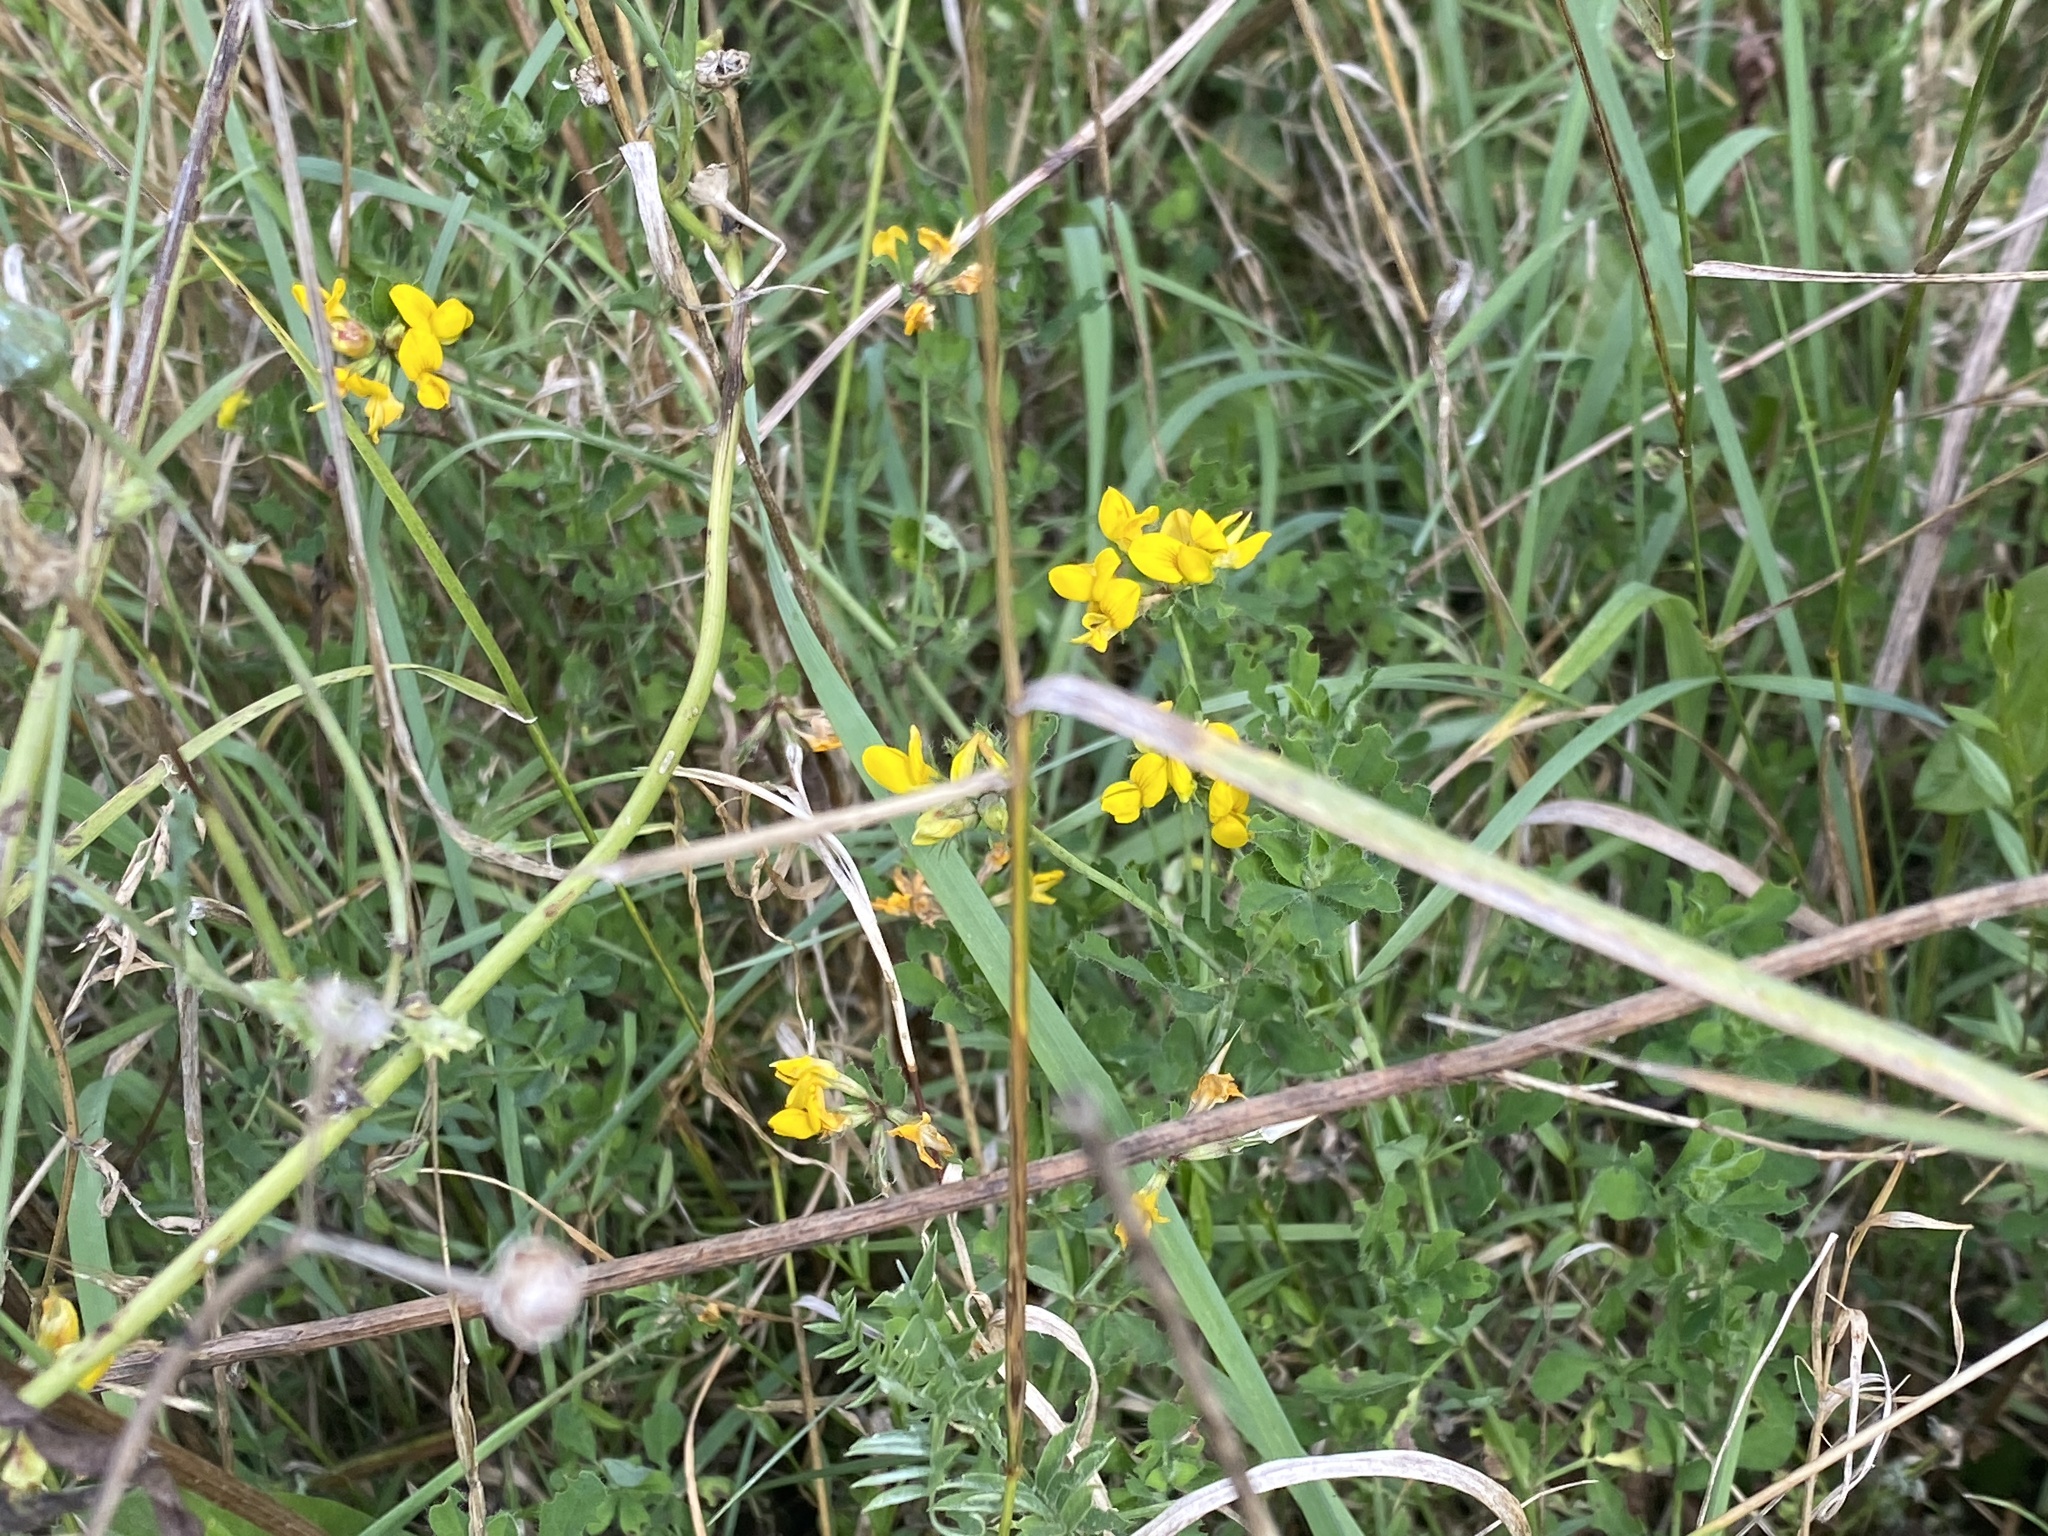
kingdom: Plantae
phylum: Tracheophyta
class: Magnoliopsida
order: Fabales
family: Fabaceae
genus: Lotus
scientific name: Lotus pedunculatus
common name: Greater birdsfoot-trefoil
